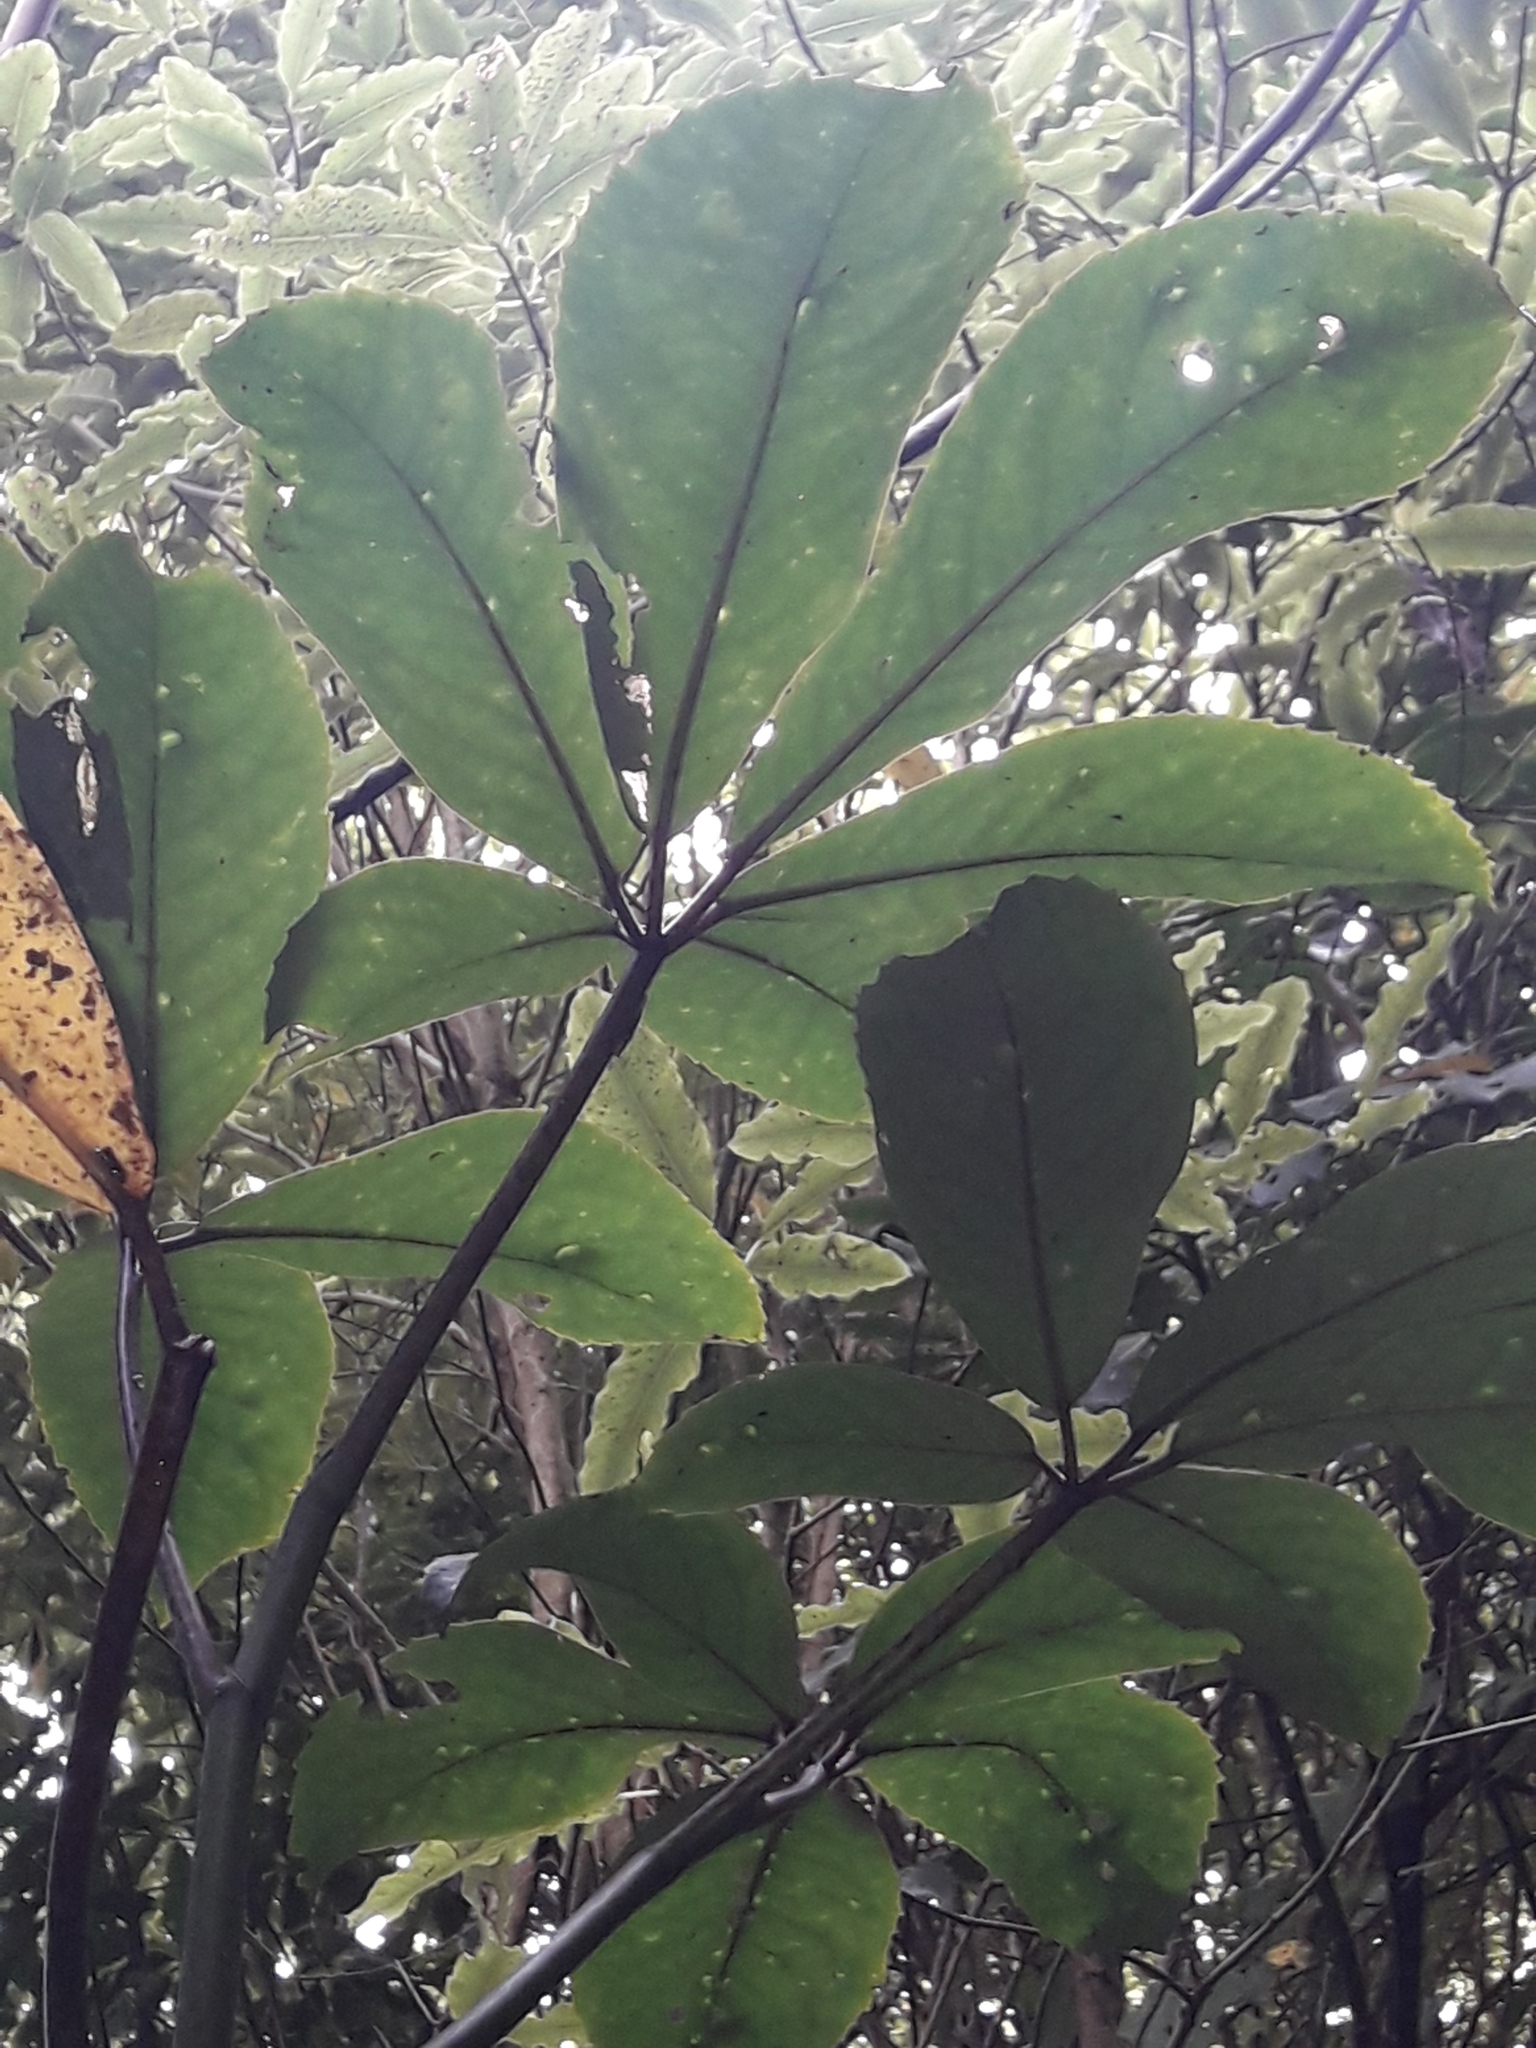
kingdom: Plantae
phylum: Tracheophyta
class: Magnoliopsida
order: Apiales
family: Araliaceae
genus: Neopanax
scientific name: Neopanax laetus
